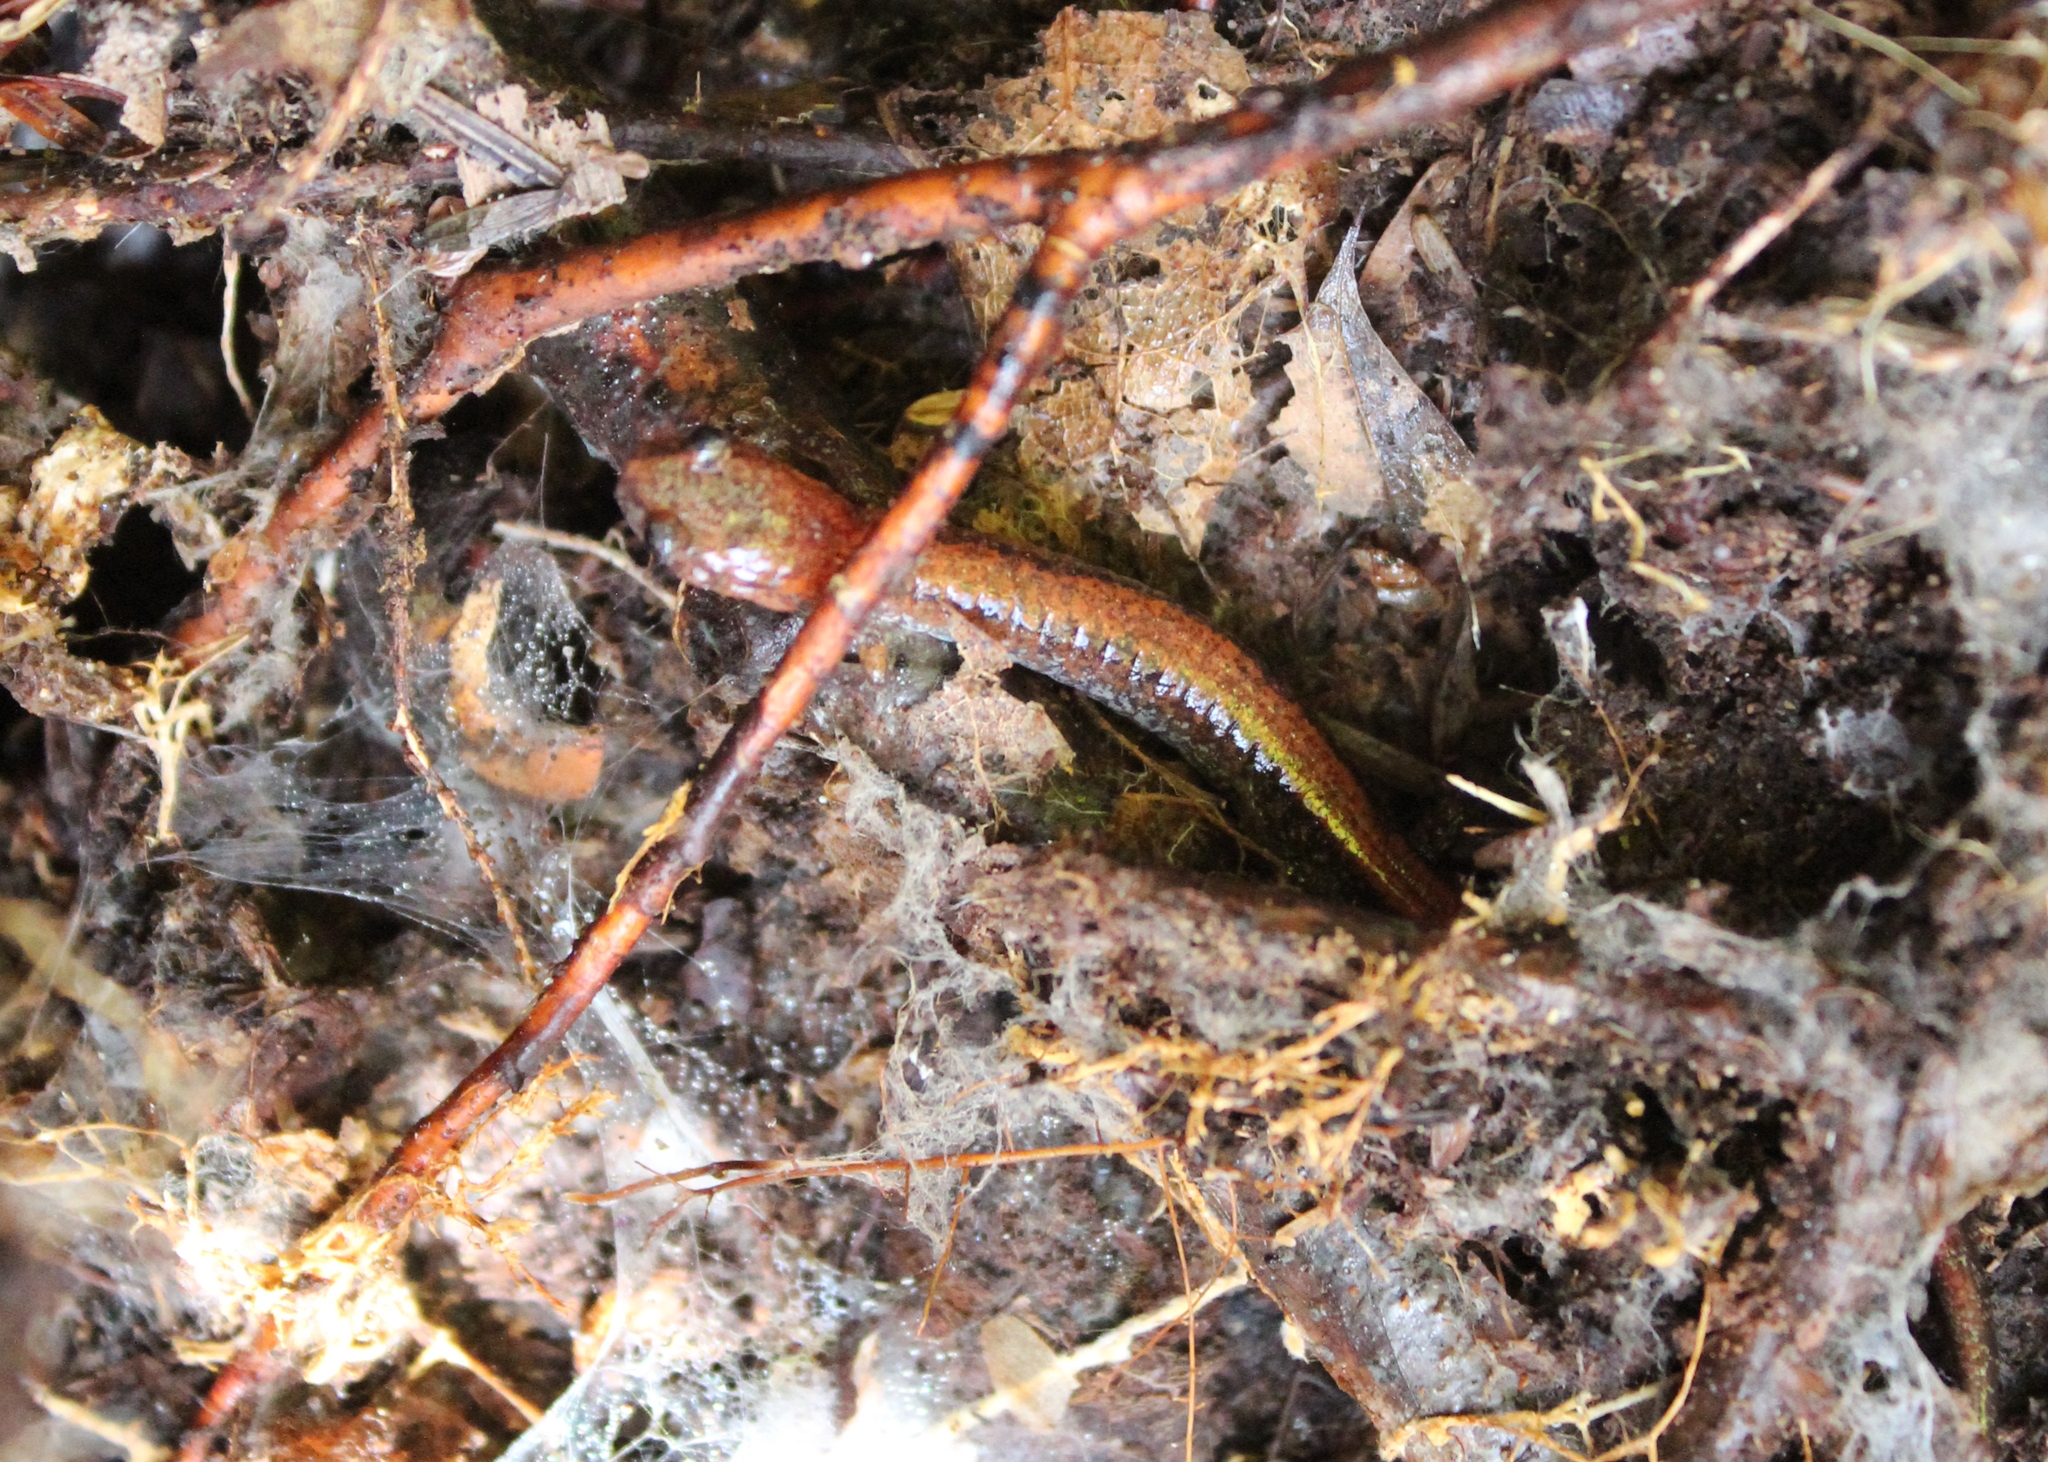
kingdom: Animalia
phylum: Chordata
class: Amphibia
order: Caudata
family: Plethodontidae
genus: Plethodon
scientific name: Plethodon cinereus
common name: Redback salamander
